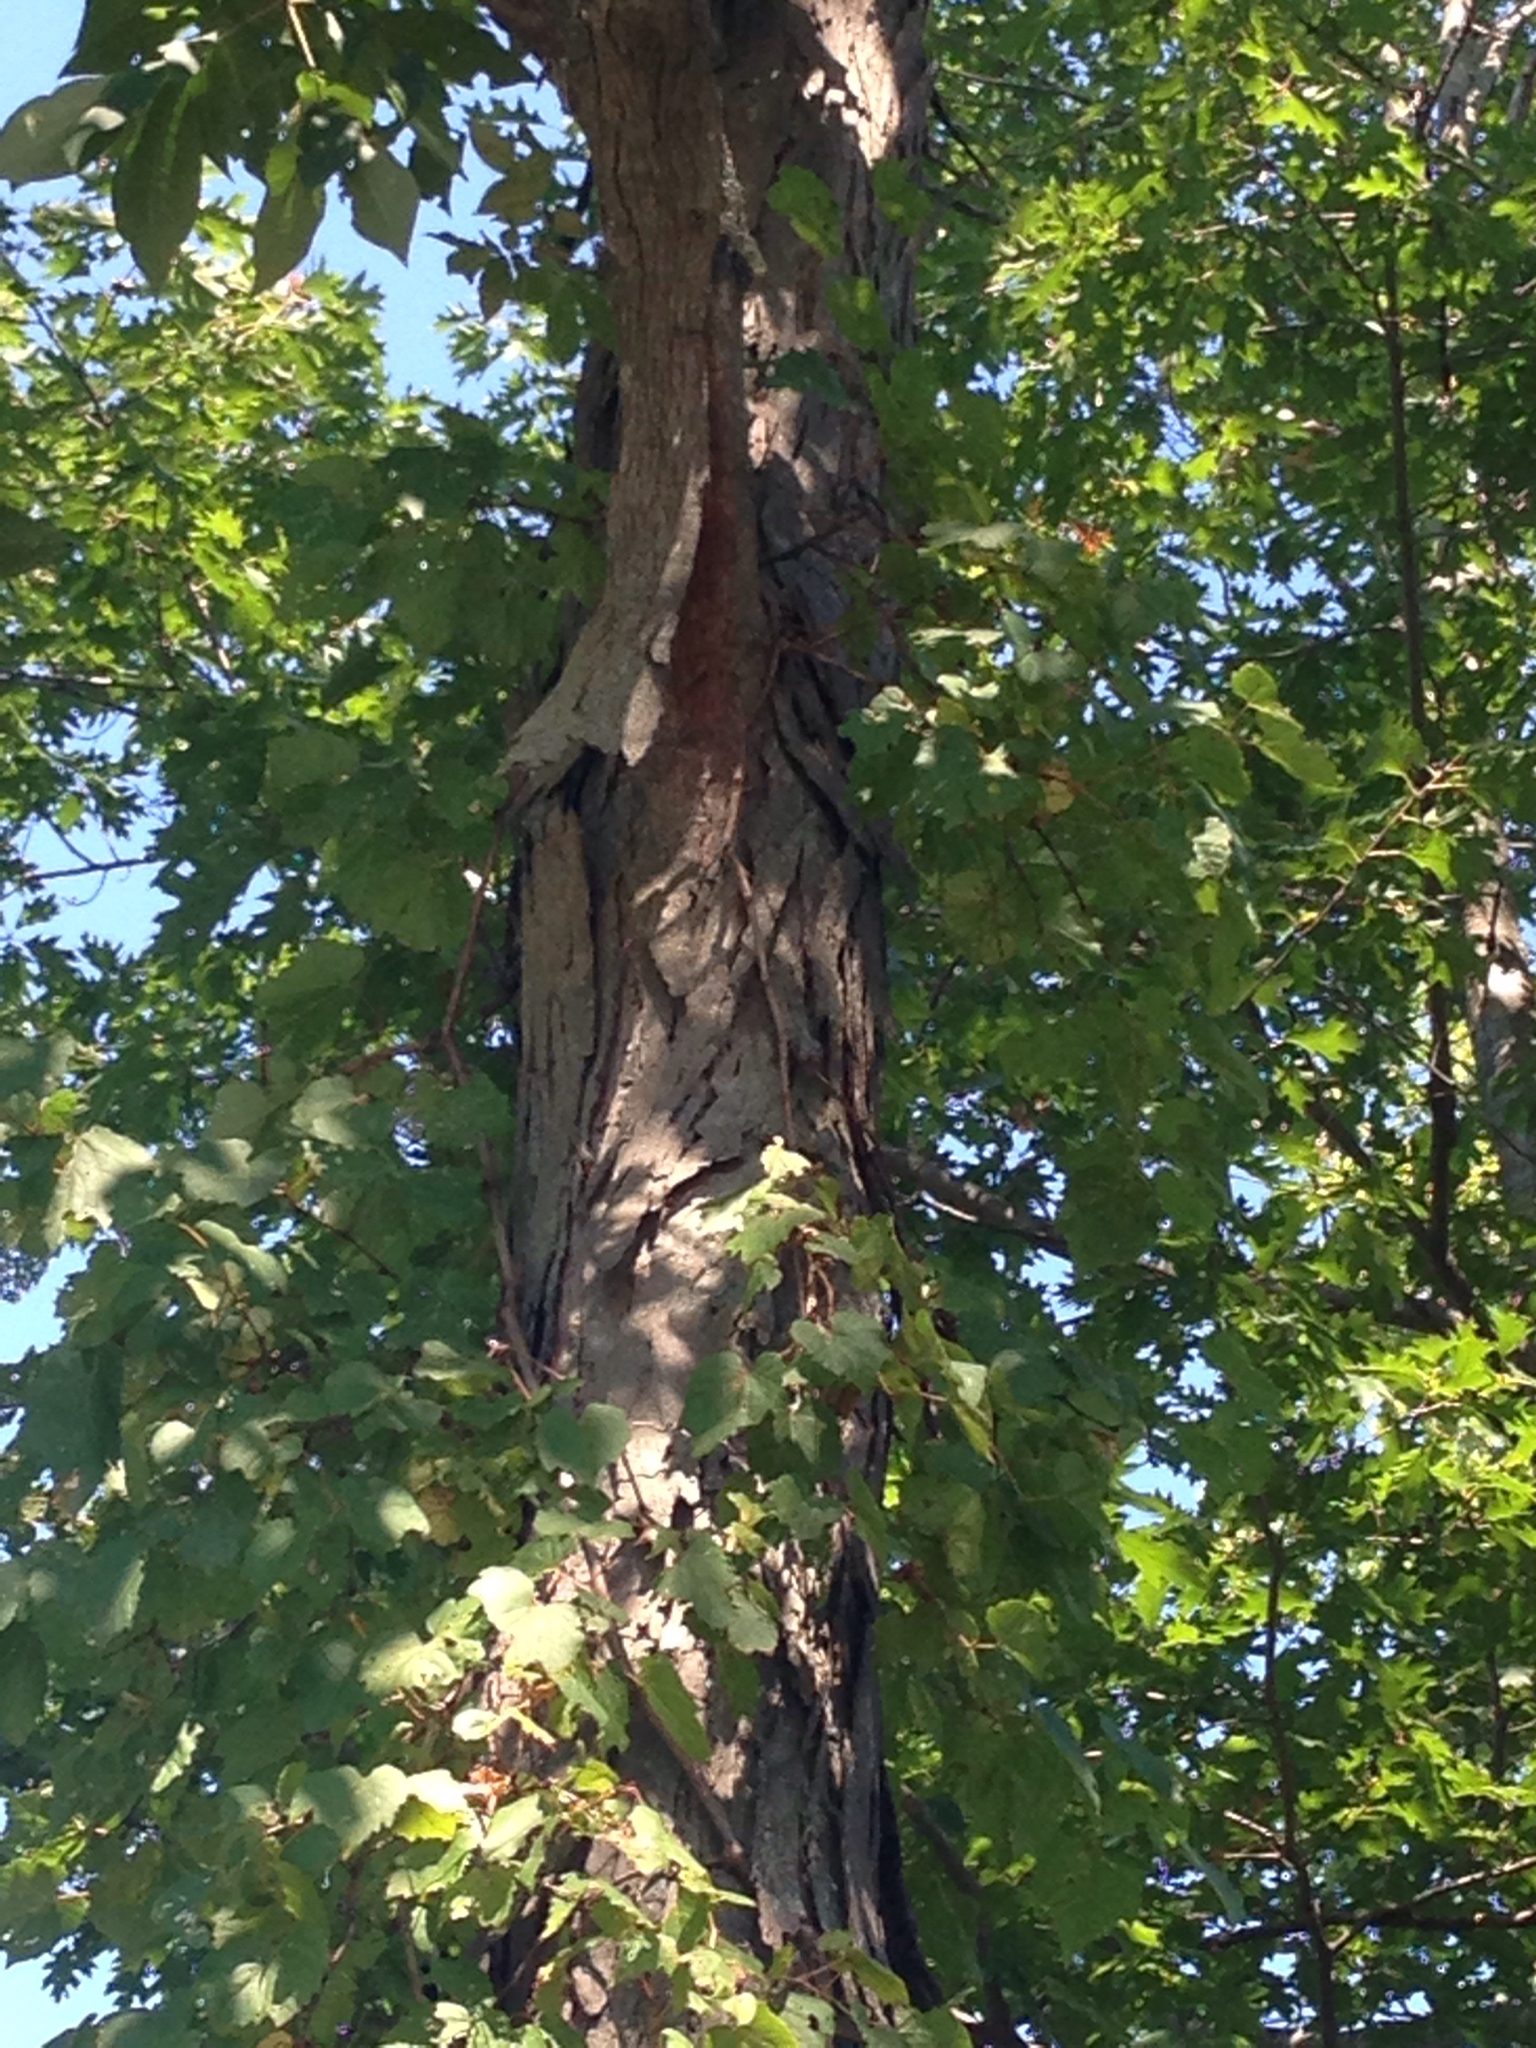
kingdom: Plantae
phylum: Tracheophyta
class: Magnoliopsida
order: Fagales
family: Juglandaceae
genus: Carya
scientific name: Carya ovata
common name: Shagbark hickory
